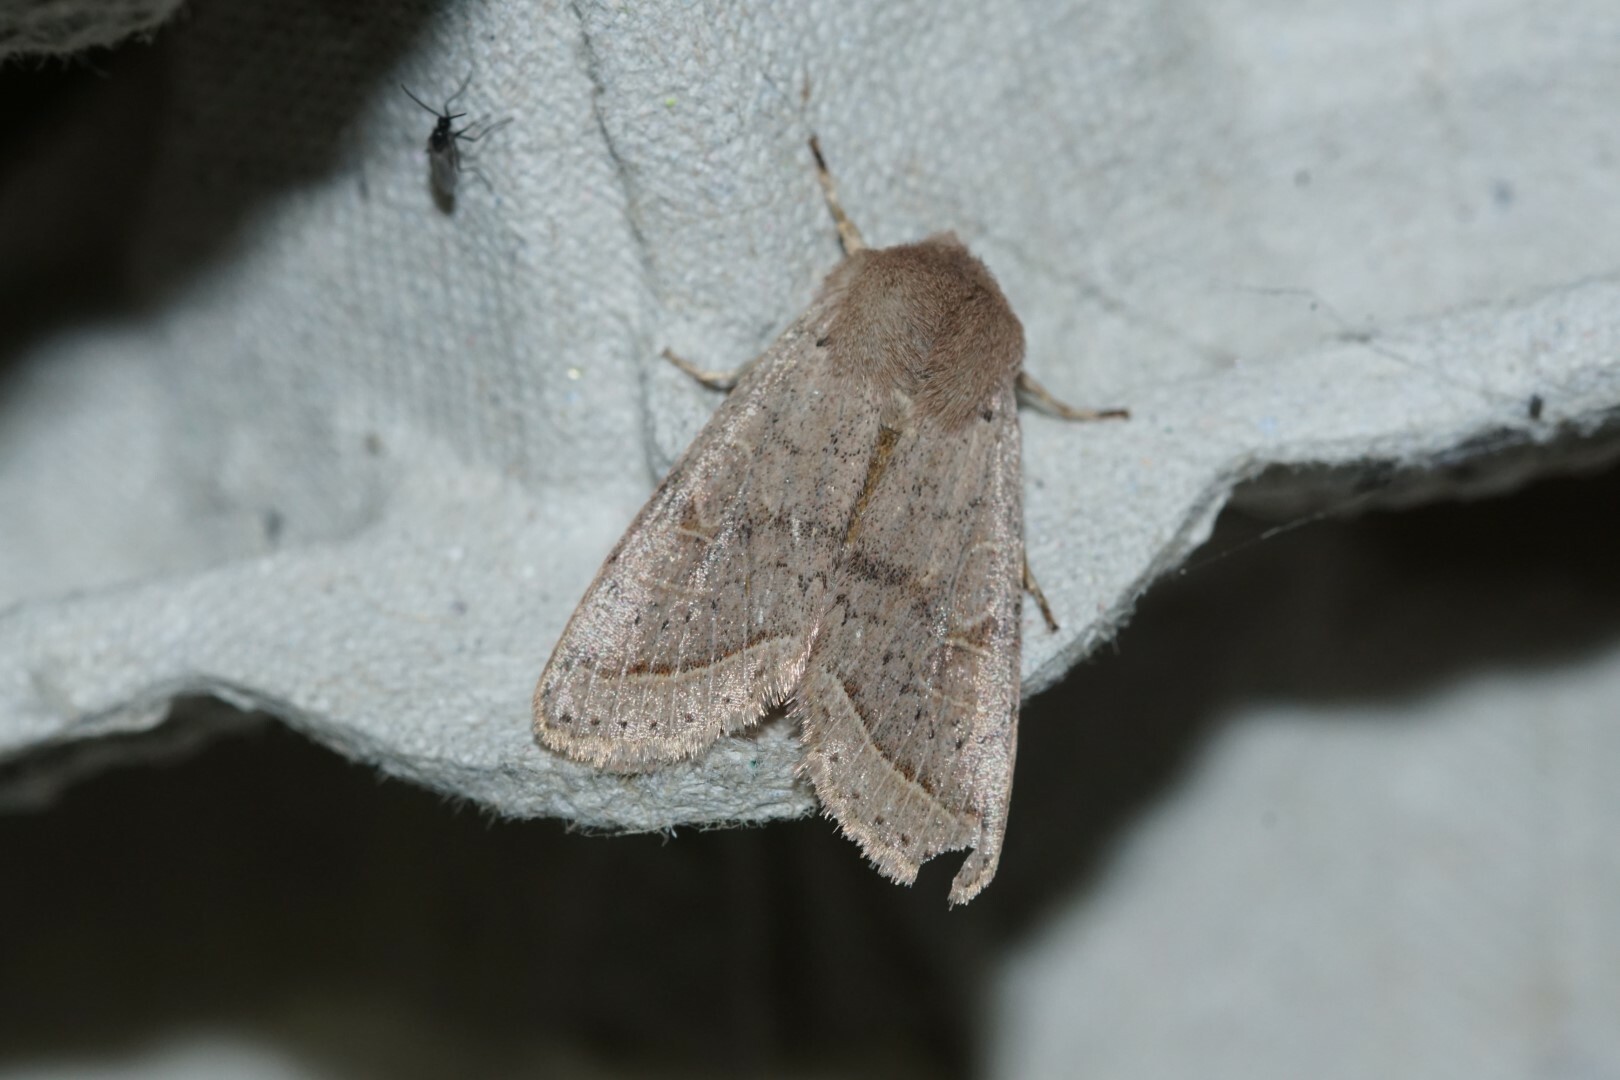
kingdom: Animalia
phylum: Arthropoda
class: Insecta
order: Lepidoptera
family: Noctuidae
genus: Orthosia
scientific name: Orthosia cerasi
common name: Common quaker
